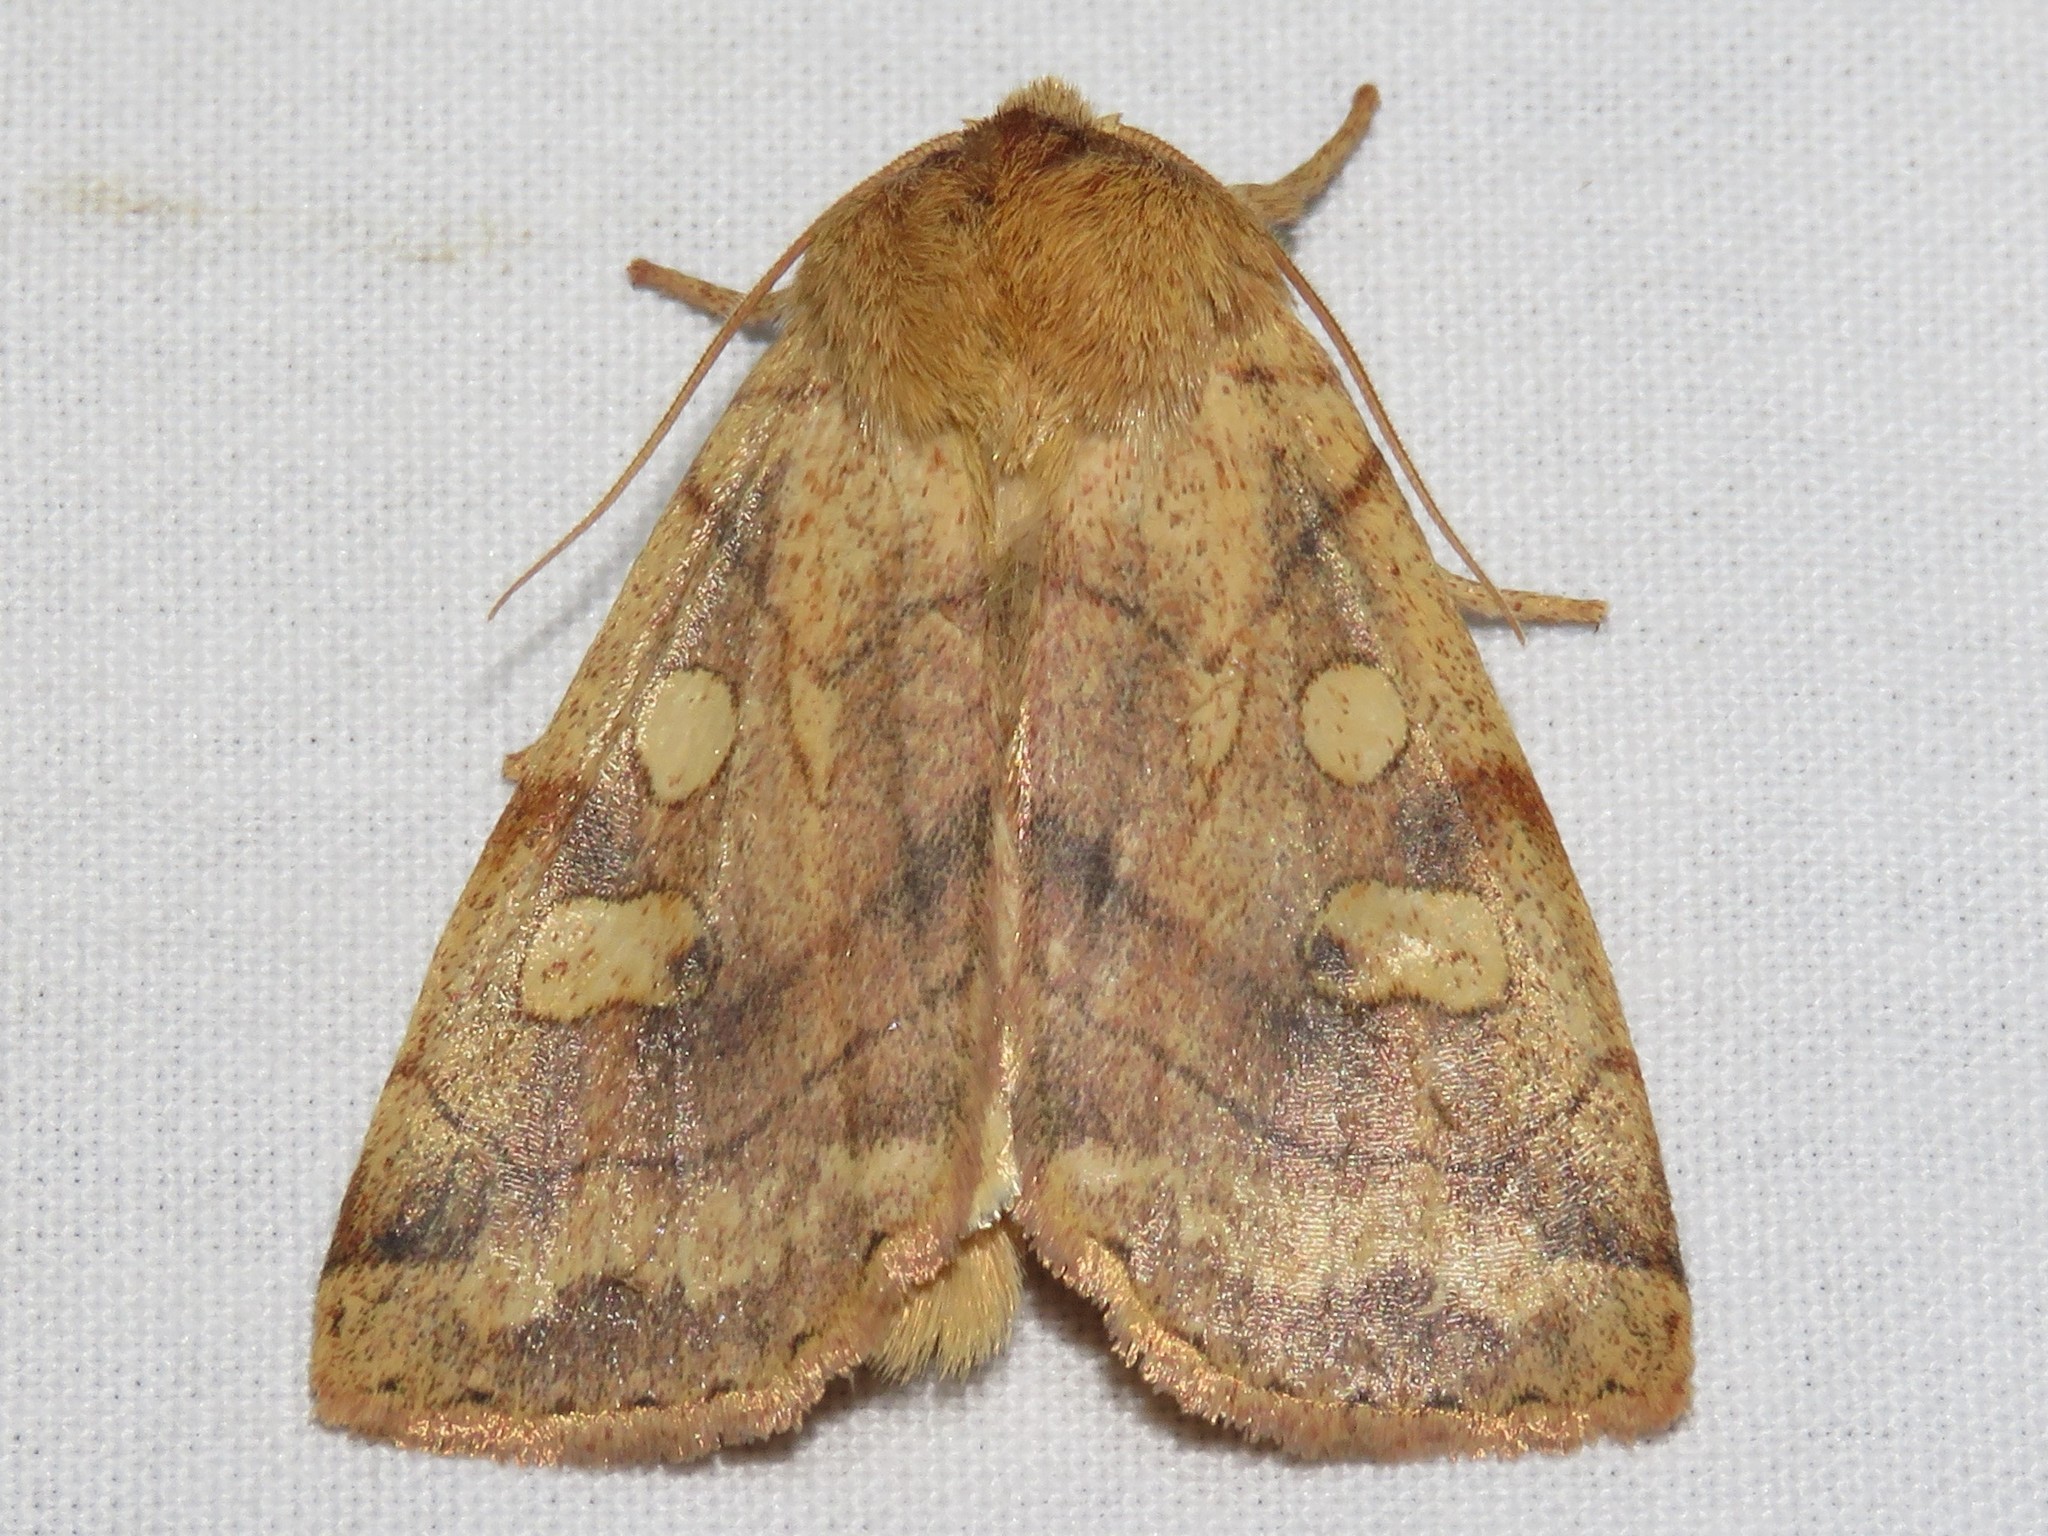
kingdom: Animalia
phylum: Arthropoda
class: Insecta
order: Lepidoptera
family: Noctuidae
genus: Enargia
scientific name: Enargia infumata
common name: Smoked sallow
